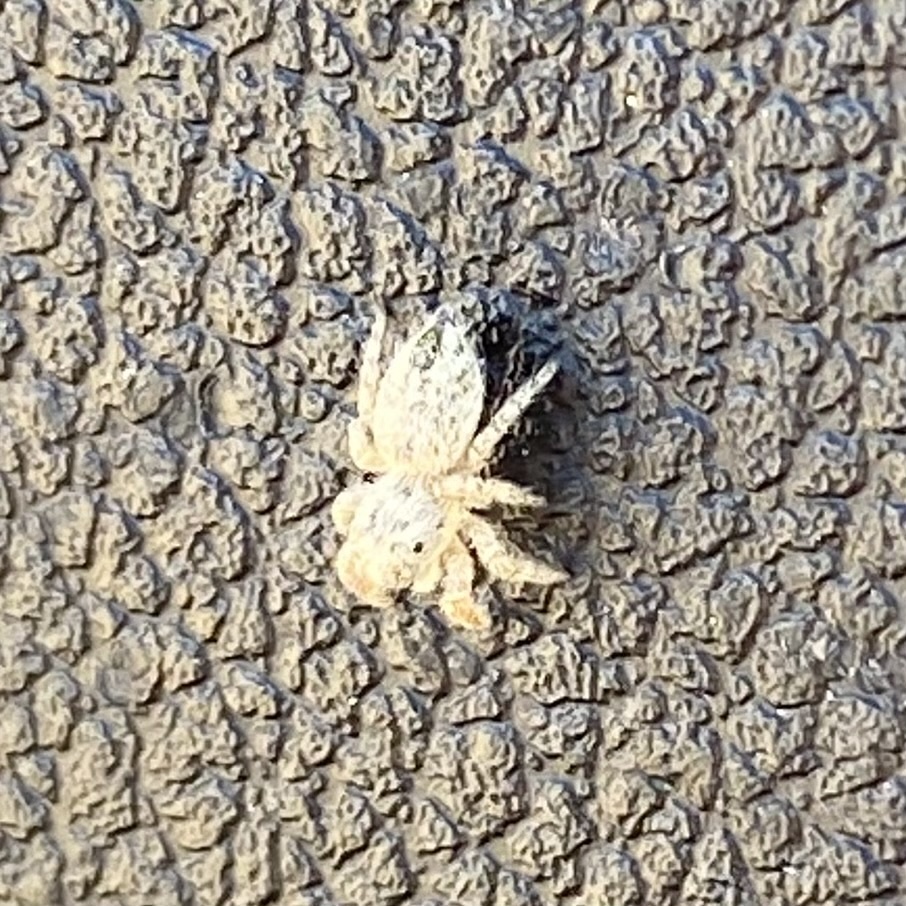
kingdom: Animalia
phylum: Arthropoda
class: Arachnida
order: Araneae
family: Salticidae
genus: Habronattus
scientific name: Habronattus
